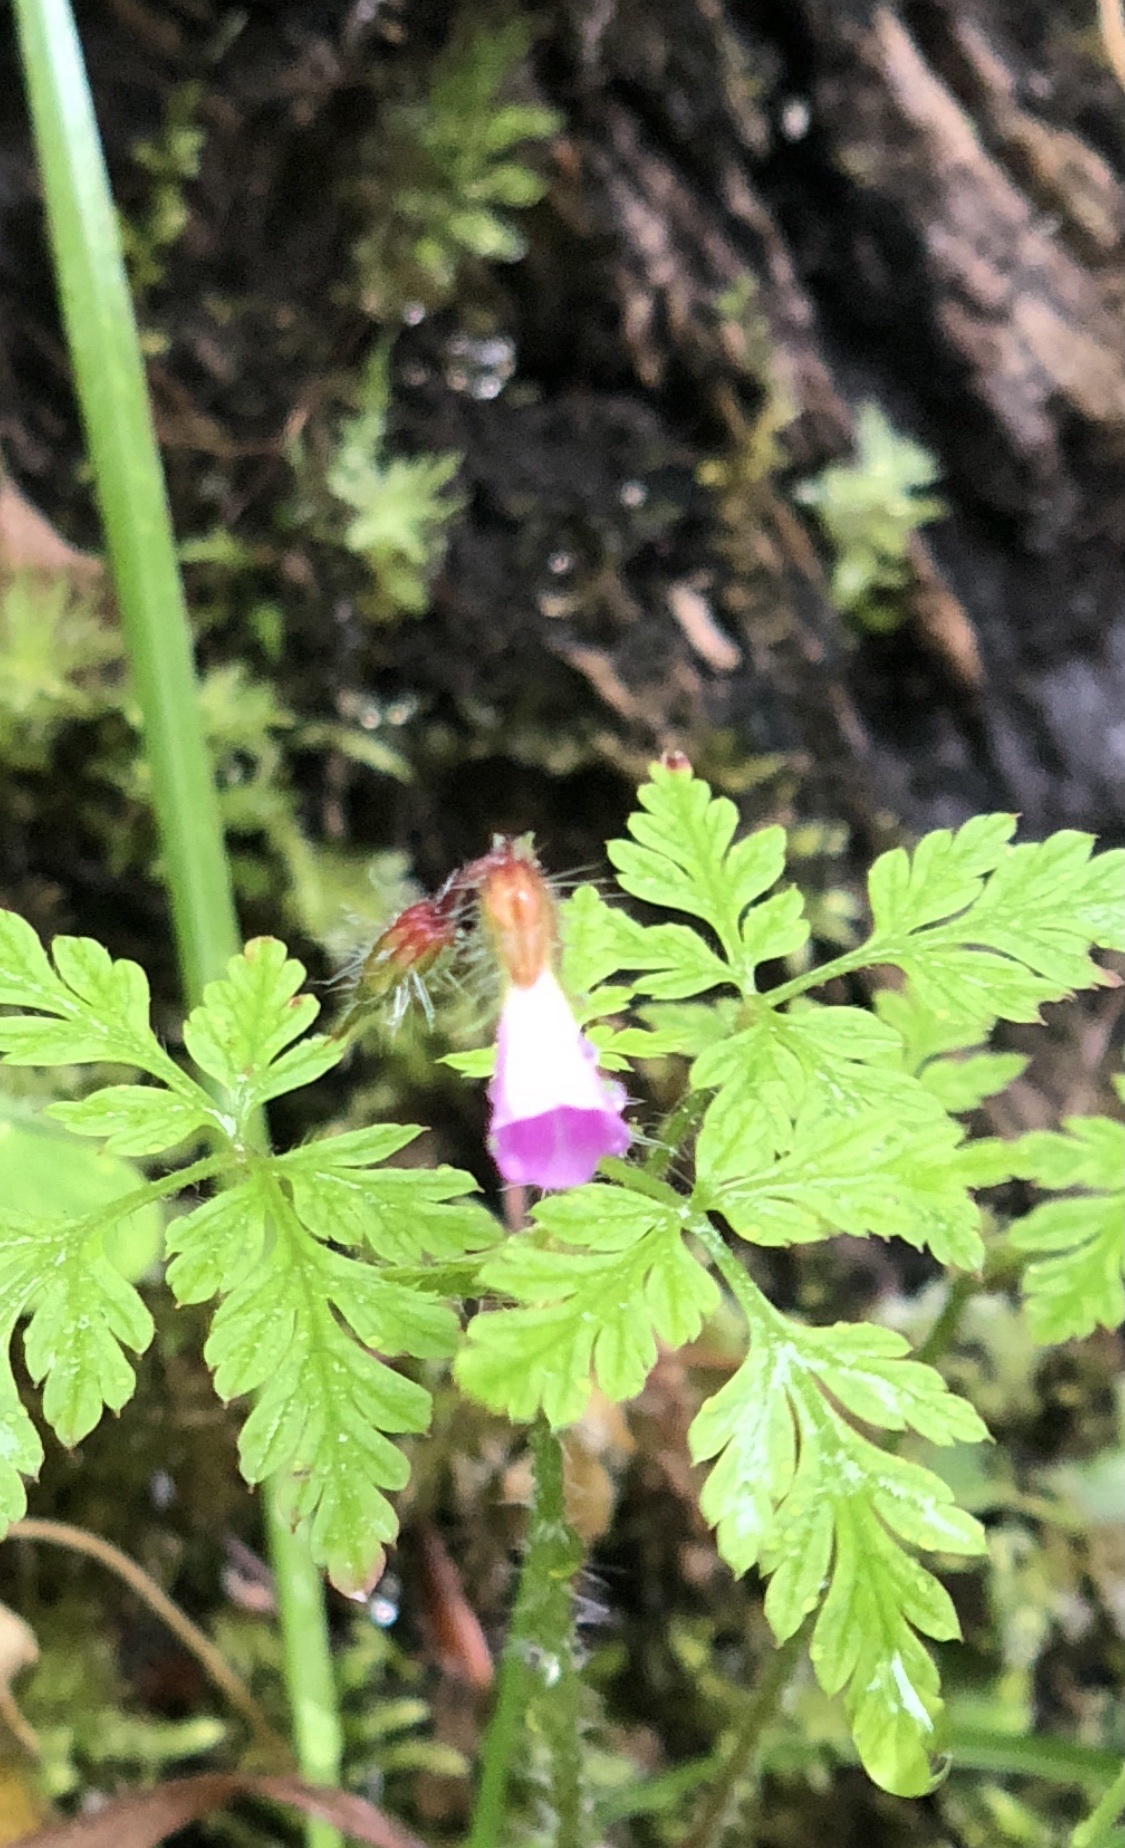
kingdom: Plantae
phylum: Tracheophyta
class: Magnoliopsida
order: Geraniales
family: Geraniaceae
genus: Geranium
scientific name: Geranium robertianum
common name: Herb-robert
